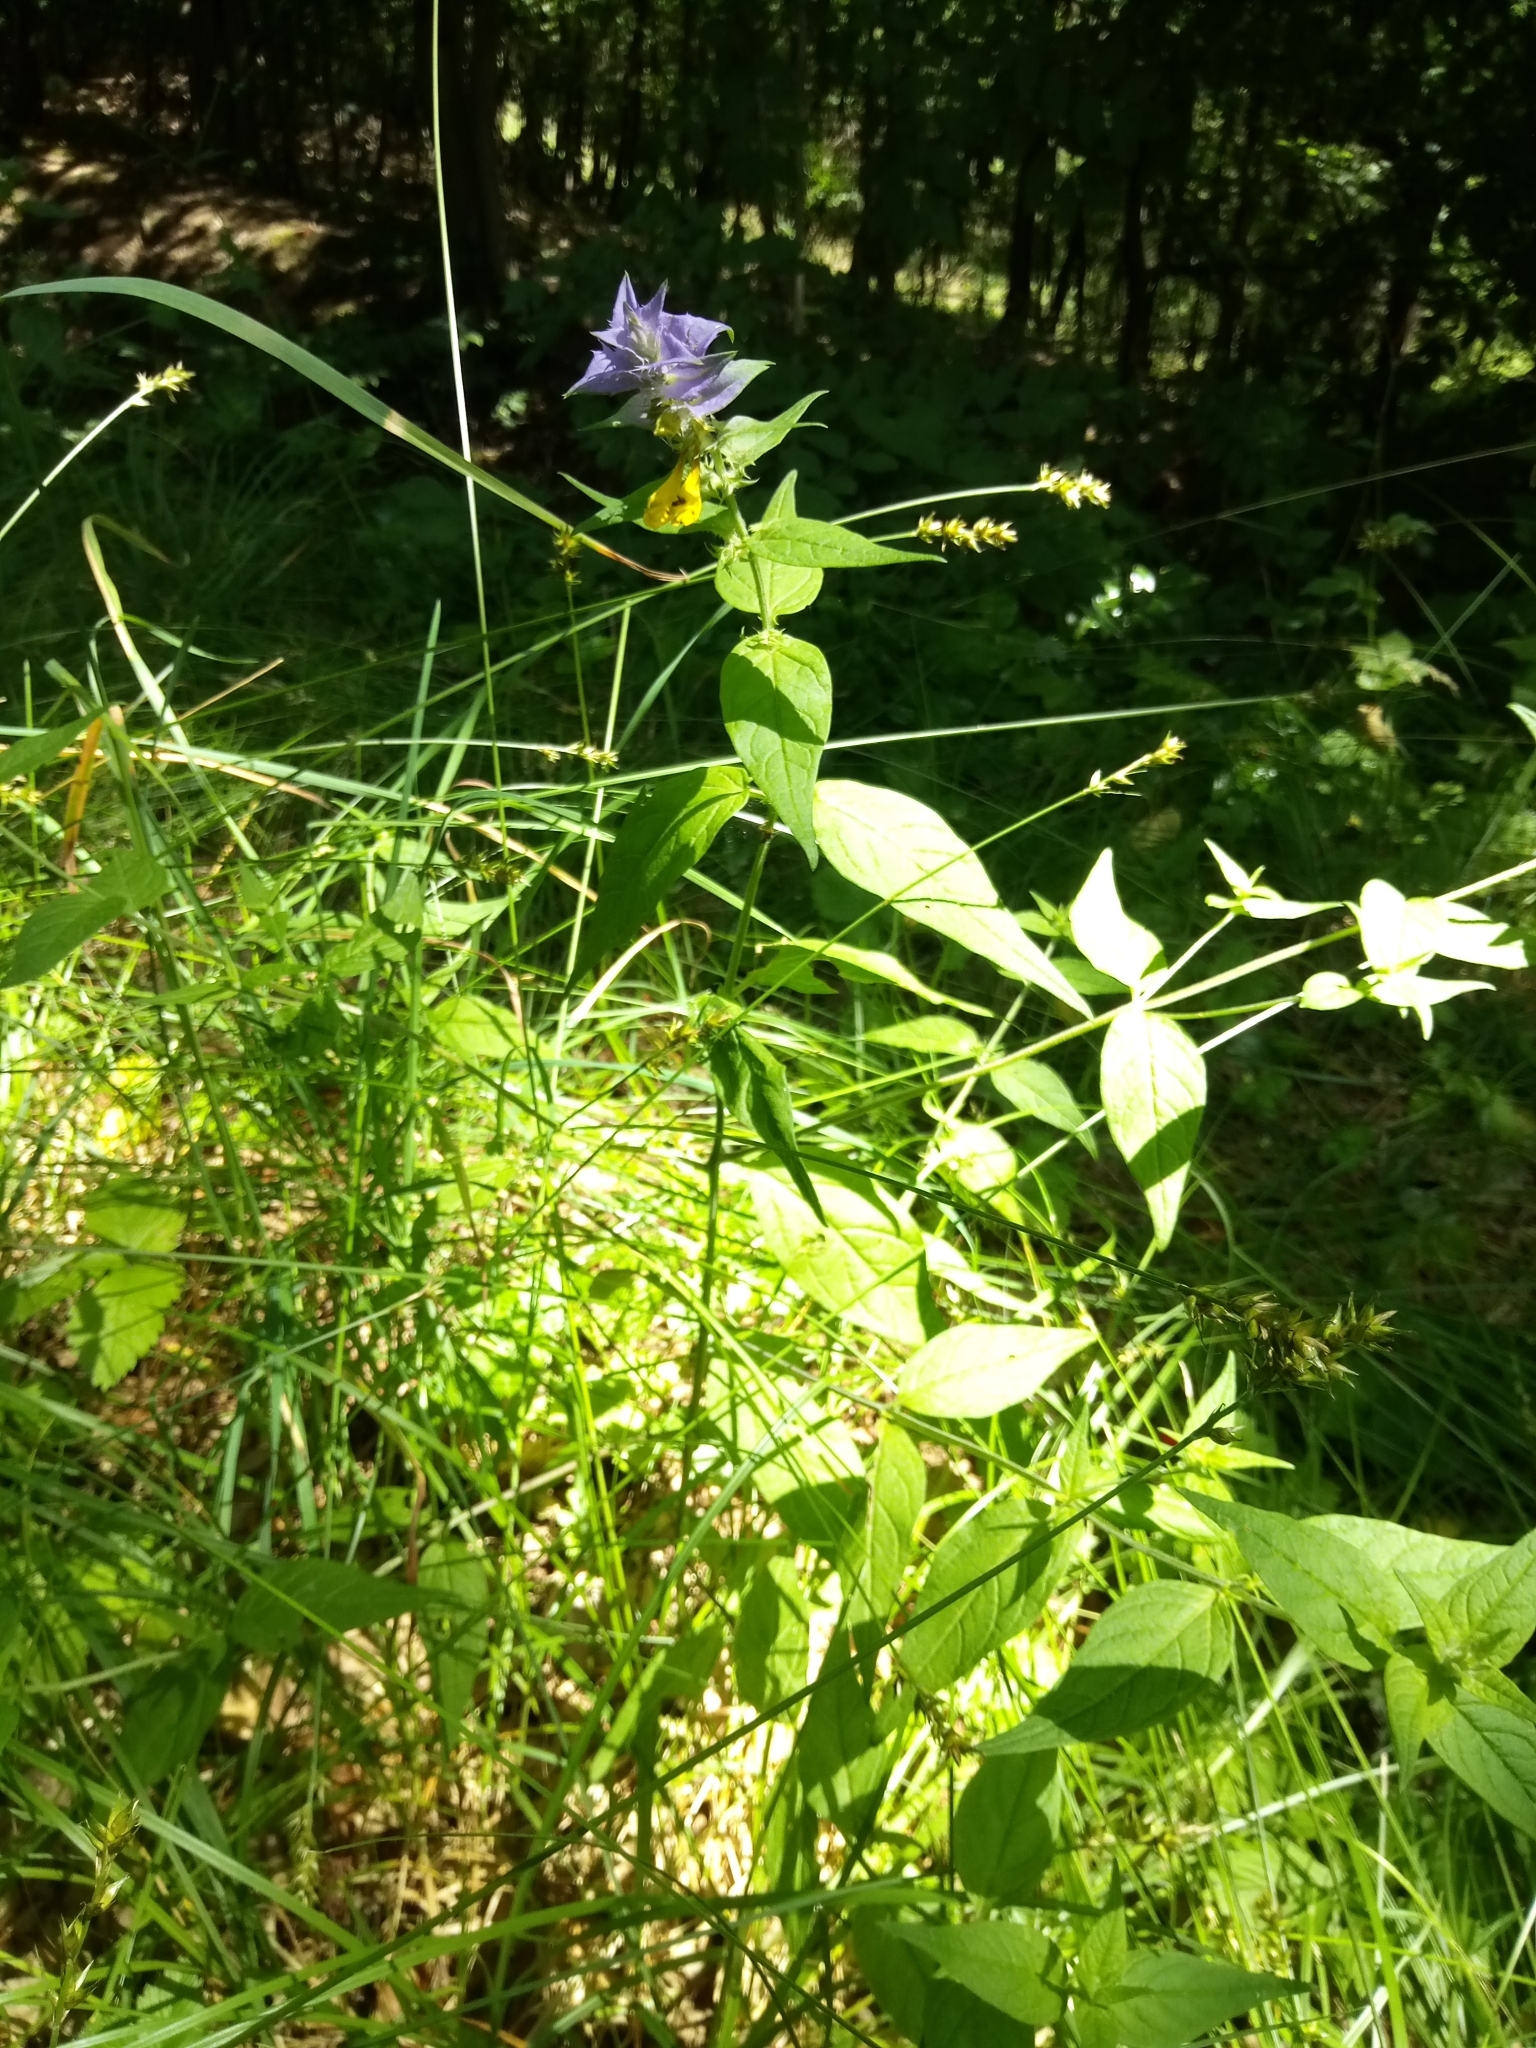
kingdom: Plantae
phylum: Tracheophyta
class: Magnoliopsida
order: Lamiales
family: Orobanchaceae
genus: Melampyrum
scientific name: Melampyrum nemorosum
